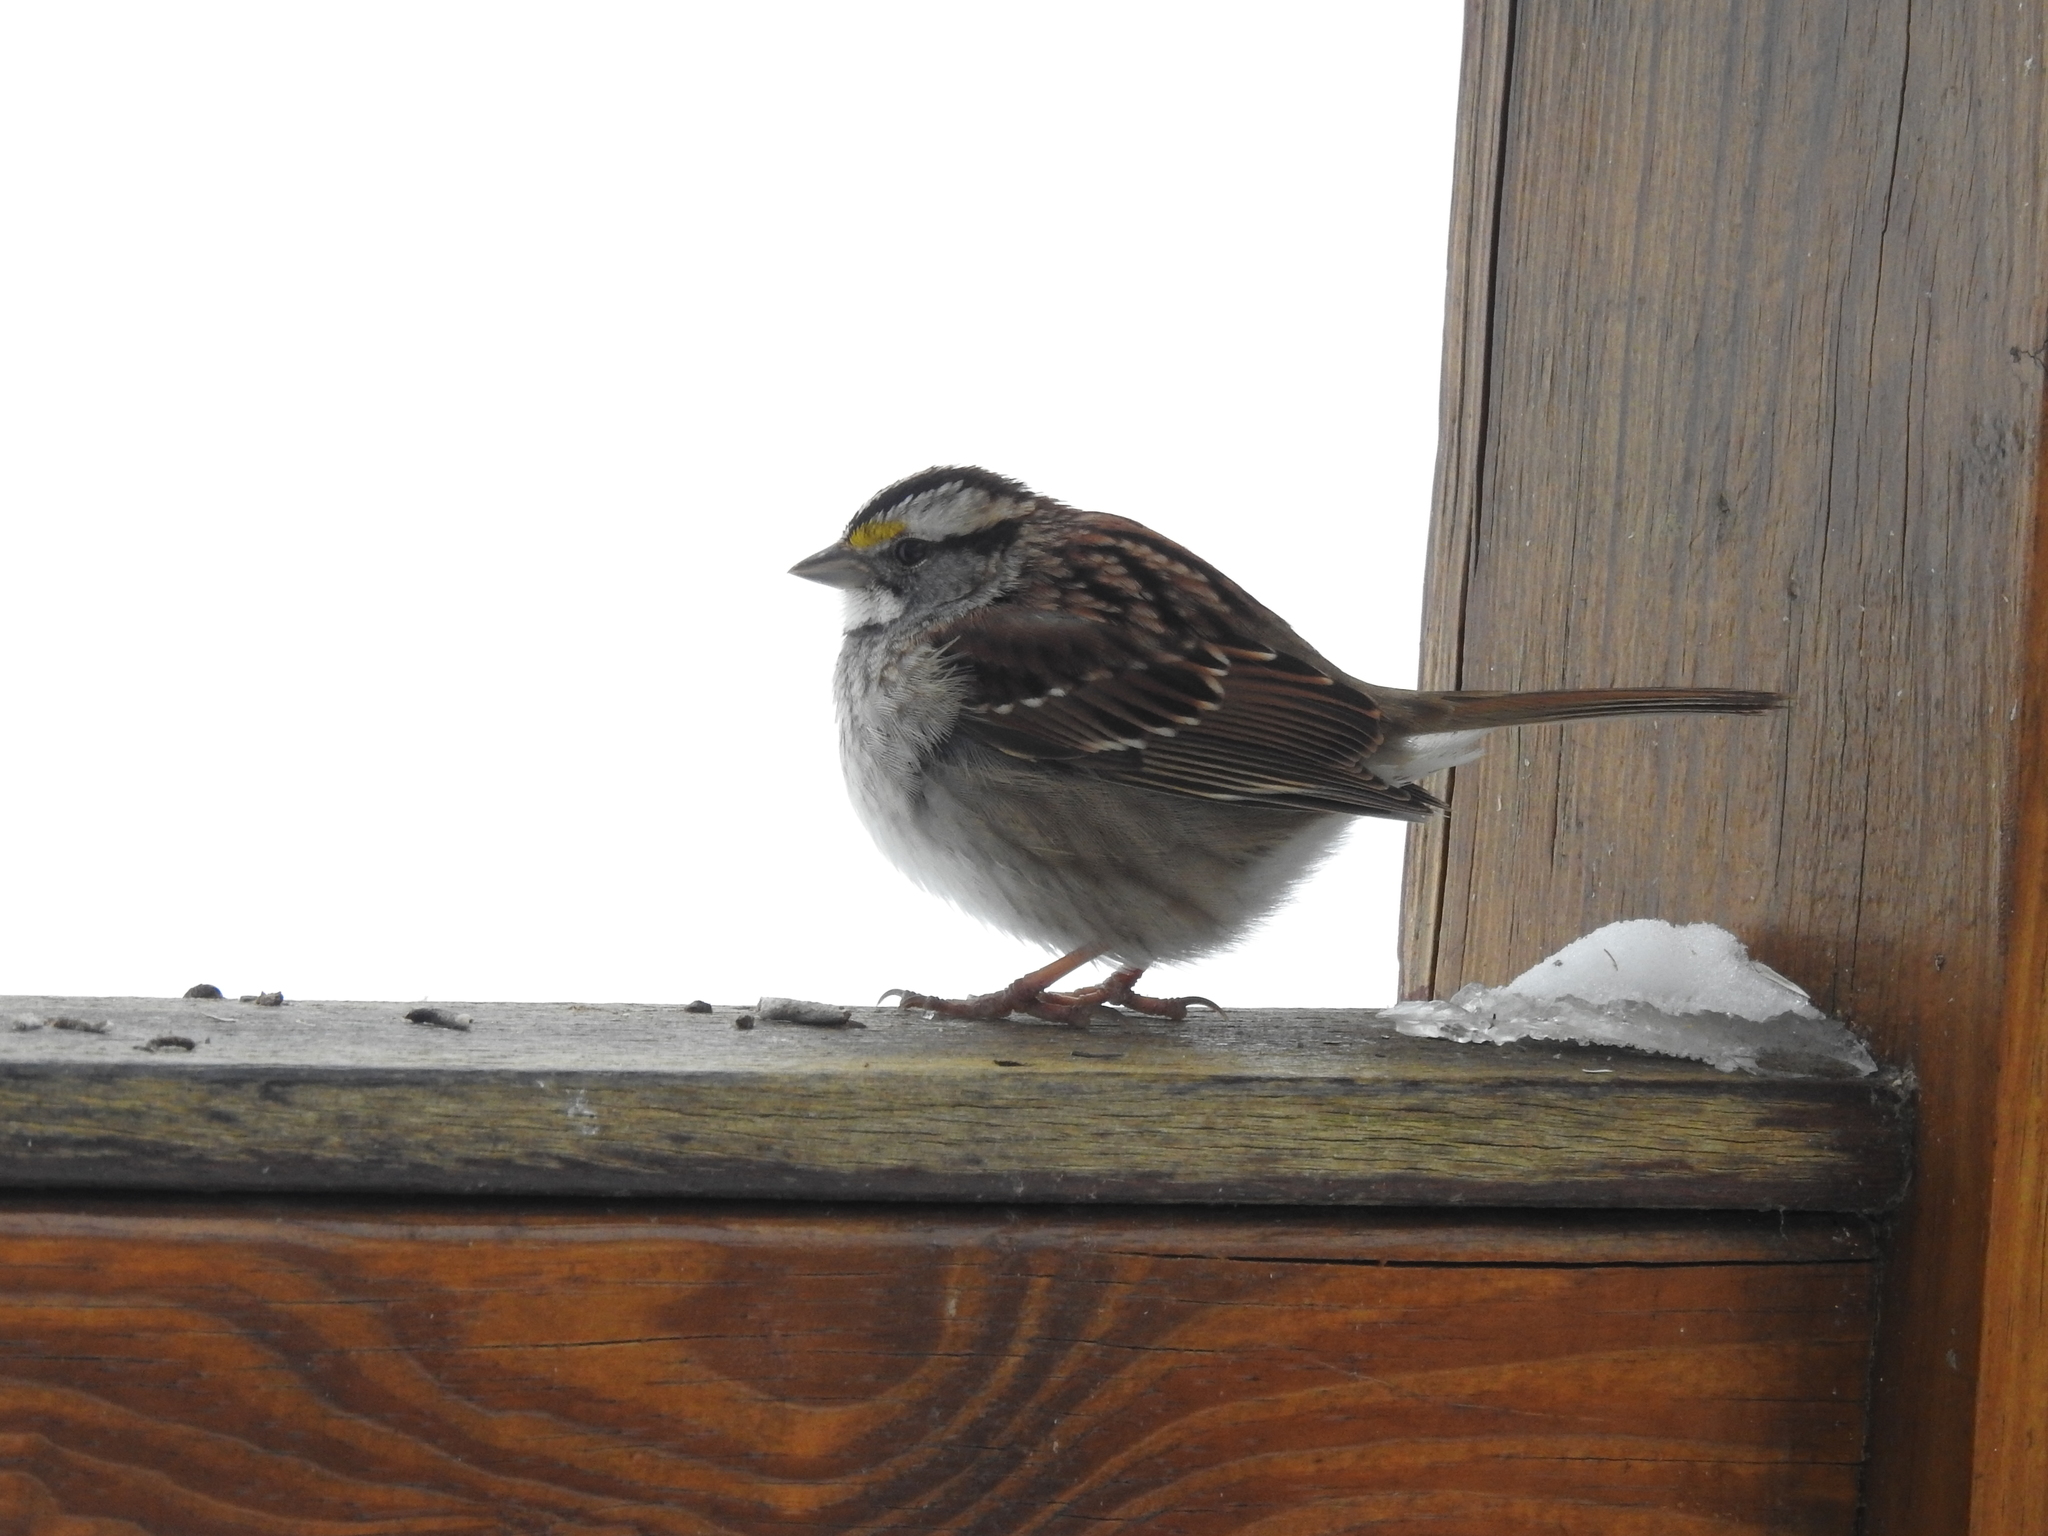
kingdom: Animalia
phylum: Chordata
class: Aves
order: Passeriformes
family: Passerellidae
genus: Zonotrichia
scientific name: Zonotrichia albicollis
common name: White-throated sparrow
